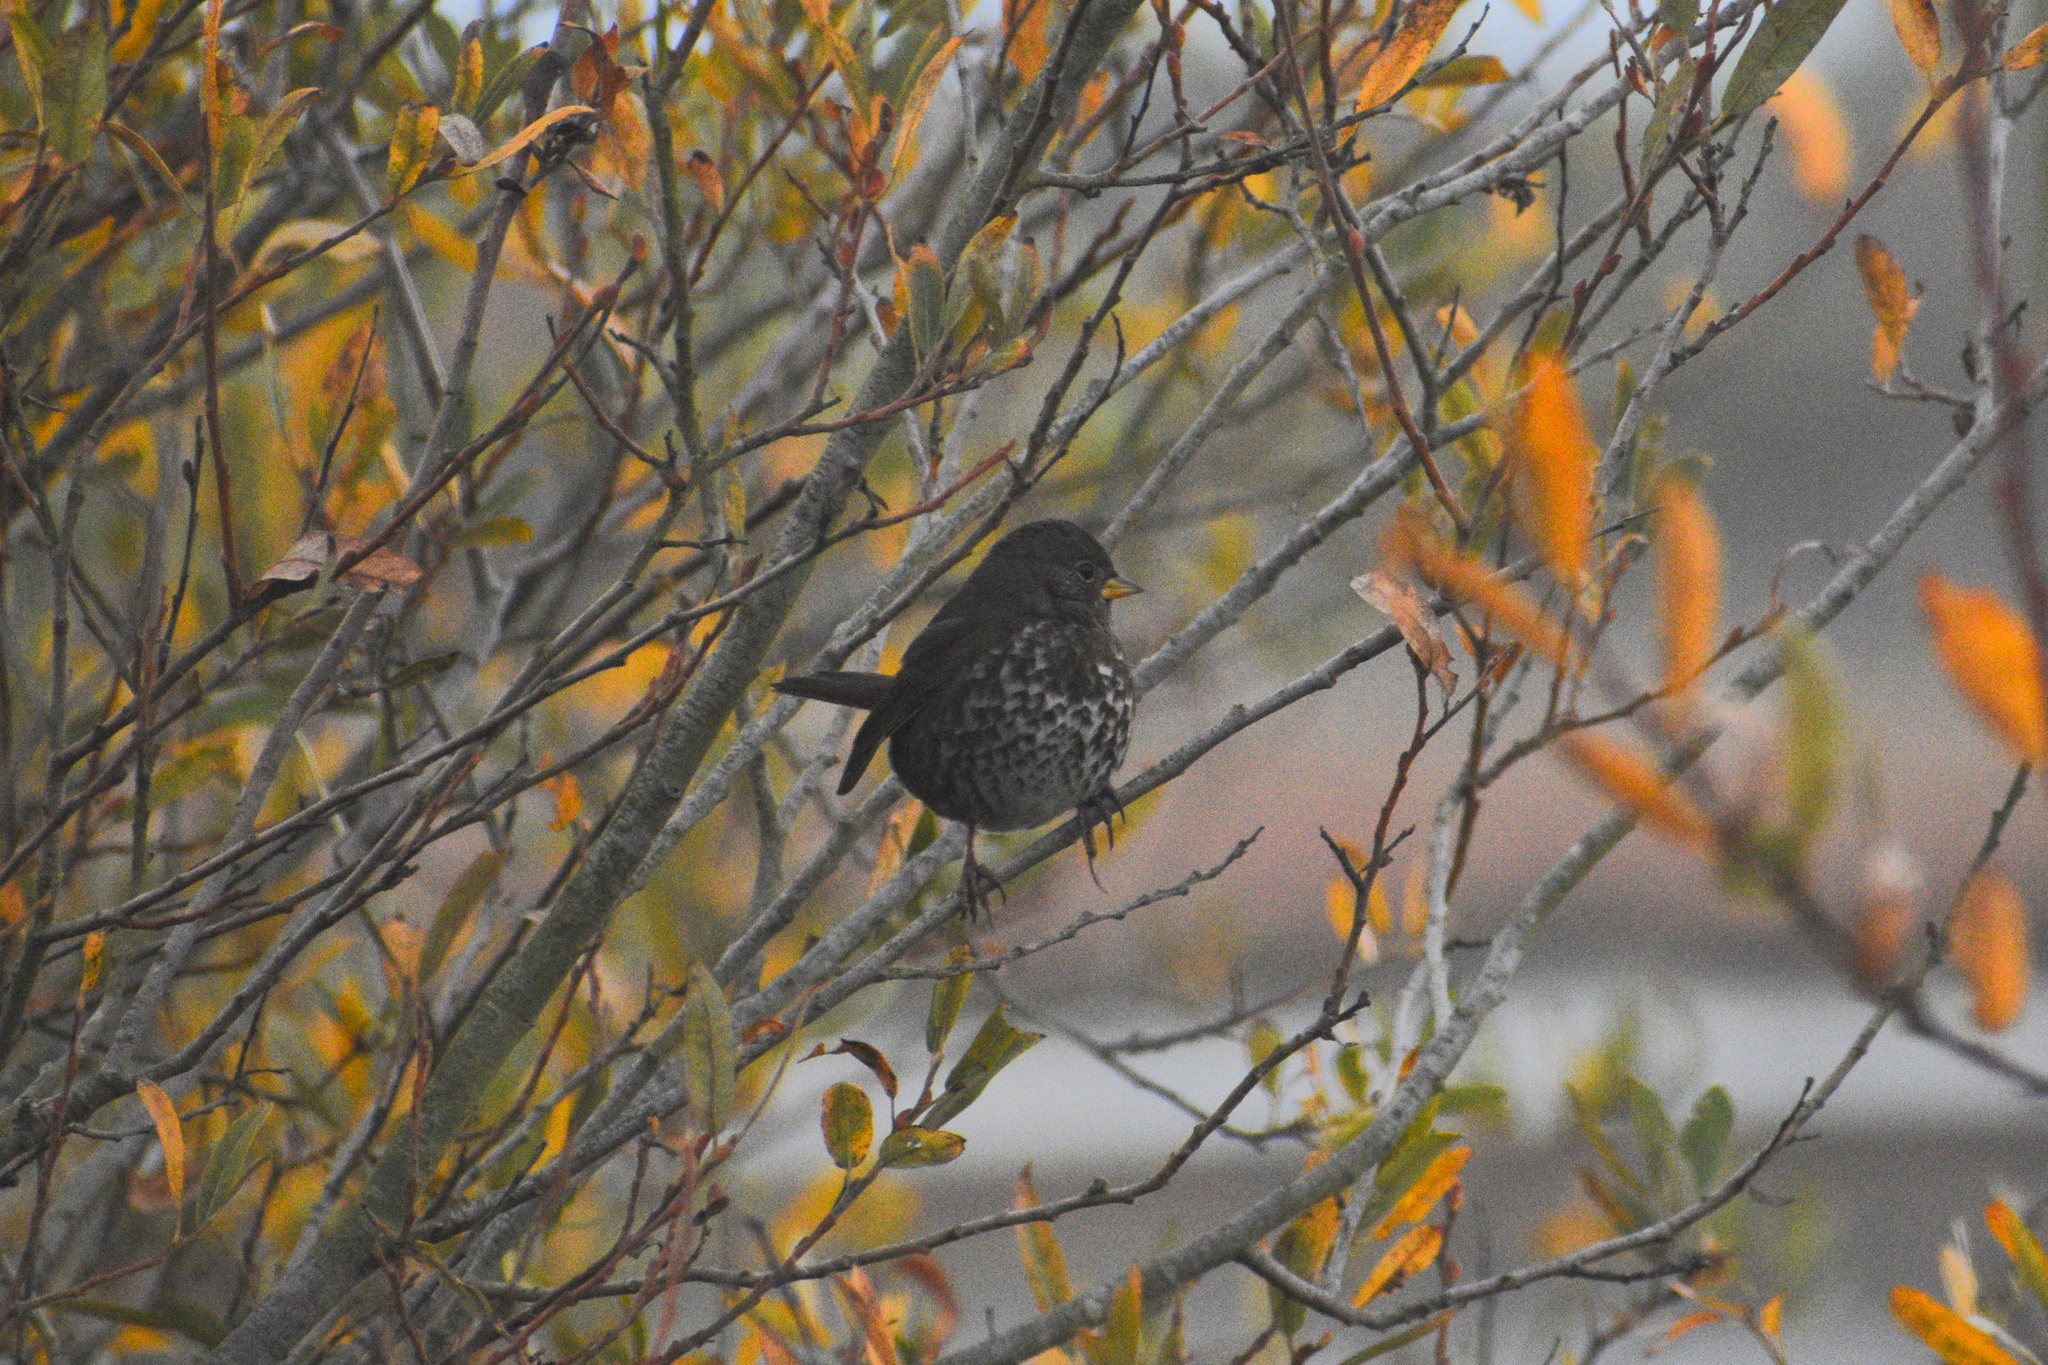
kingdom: Animalia
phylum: Chordata
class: Aves
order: Passeriformes
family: Passerellidae
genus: Passerella
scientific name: Passerella iliaca
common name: Fox sparrow
